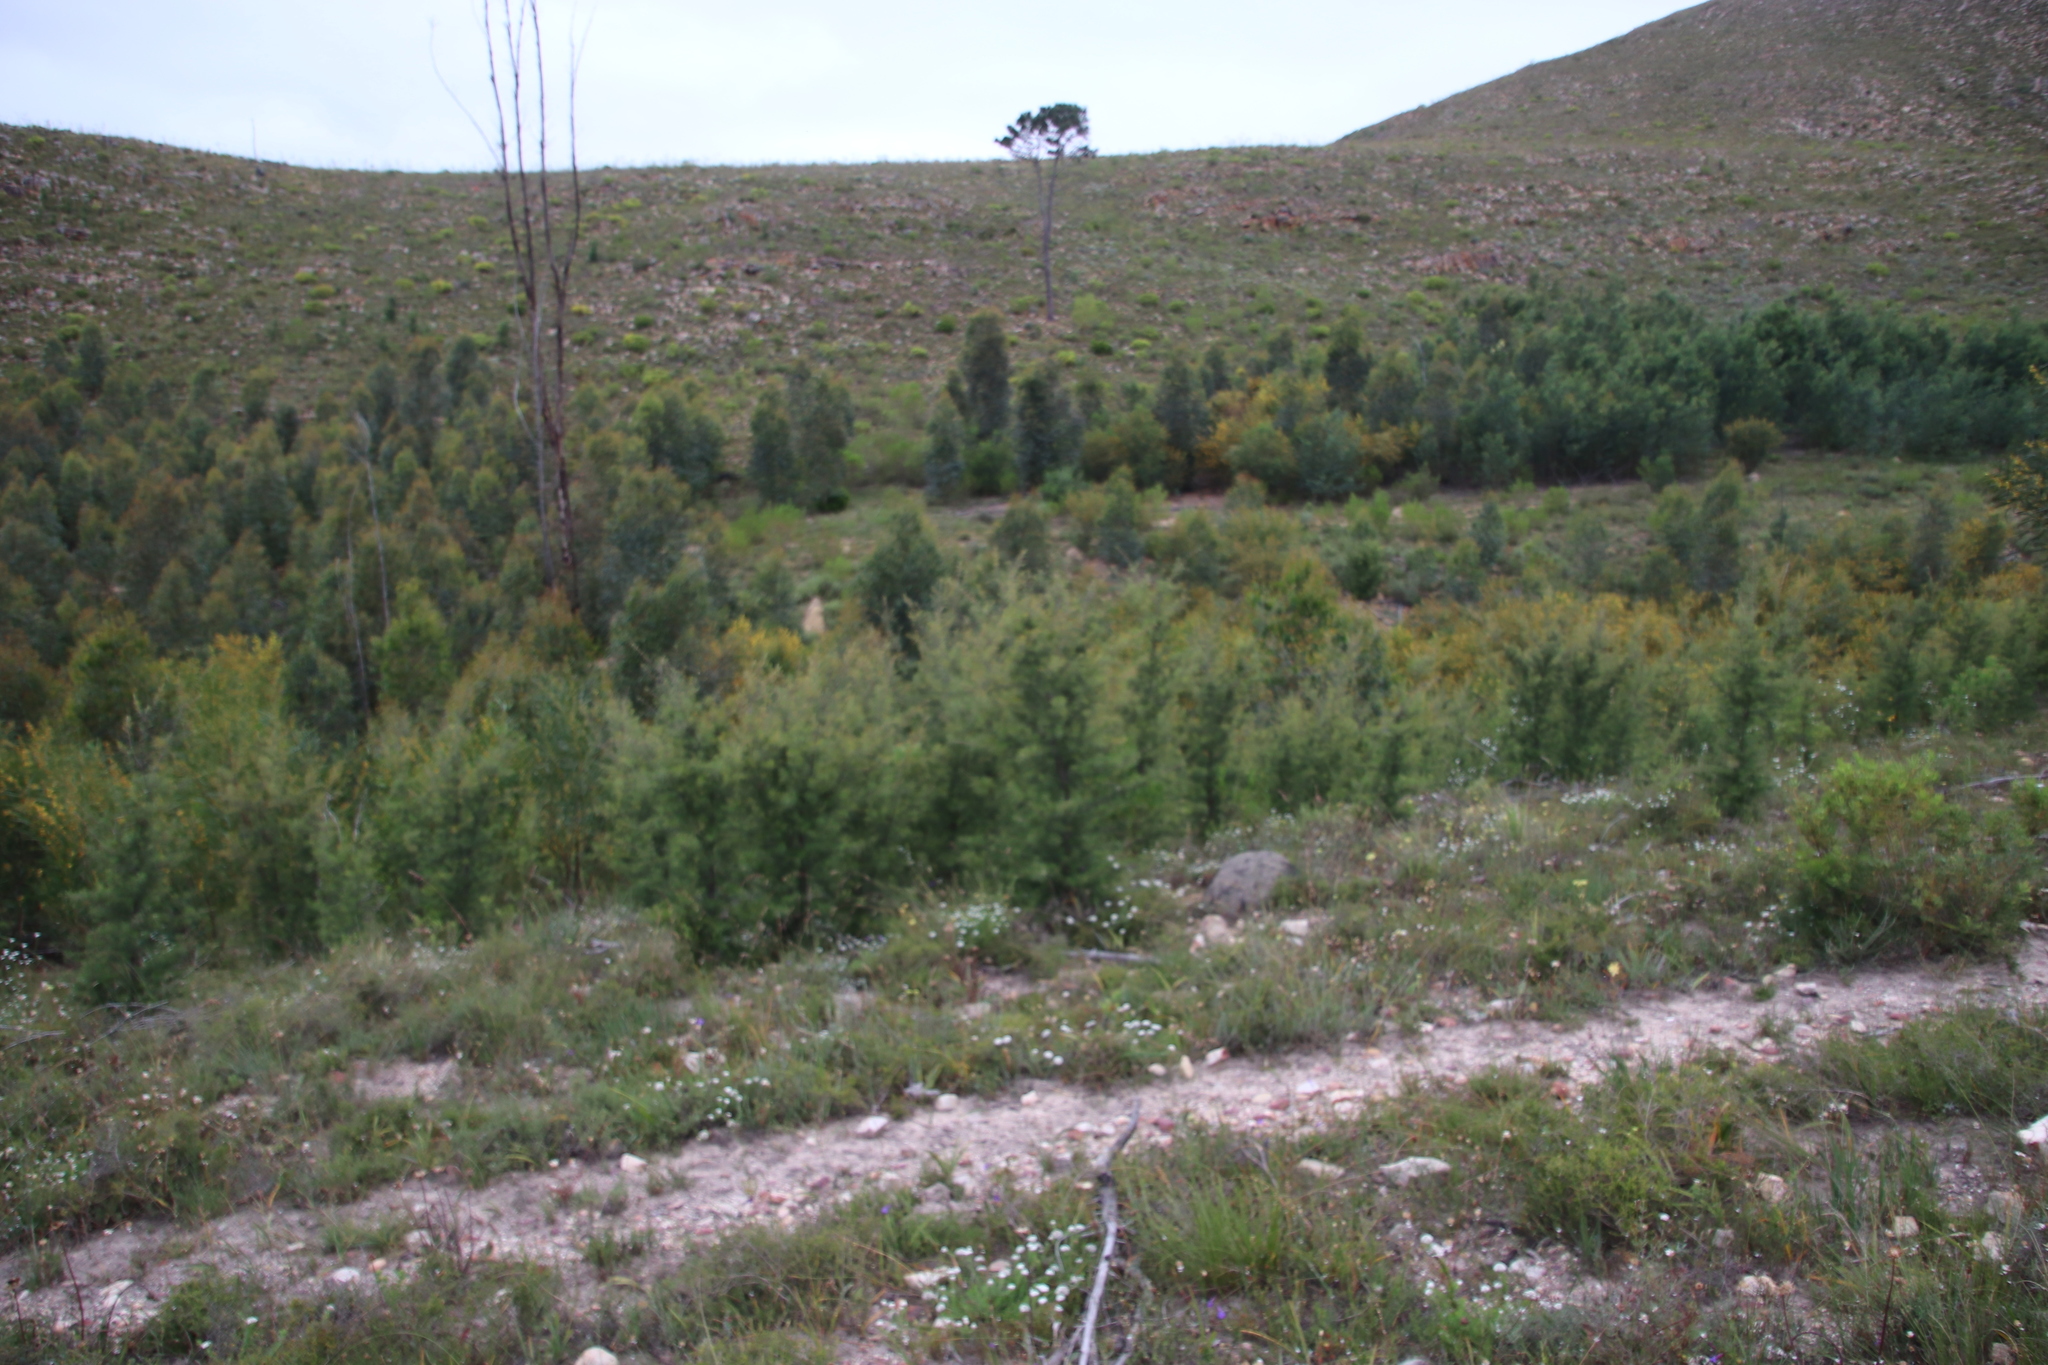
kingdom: Plantae
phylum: Tracheophyta
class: Magnoliopsida
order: Proteales
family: Proteaceae
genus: Hakea
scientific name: Hakea sericea
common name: Needle bush
